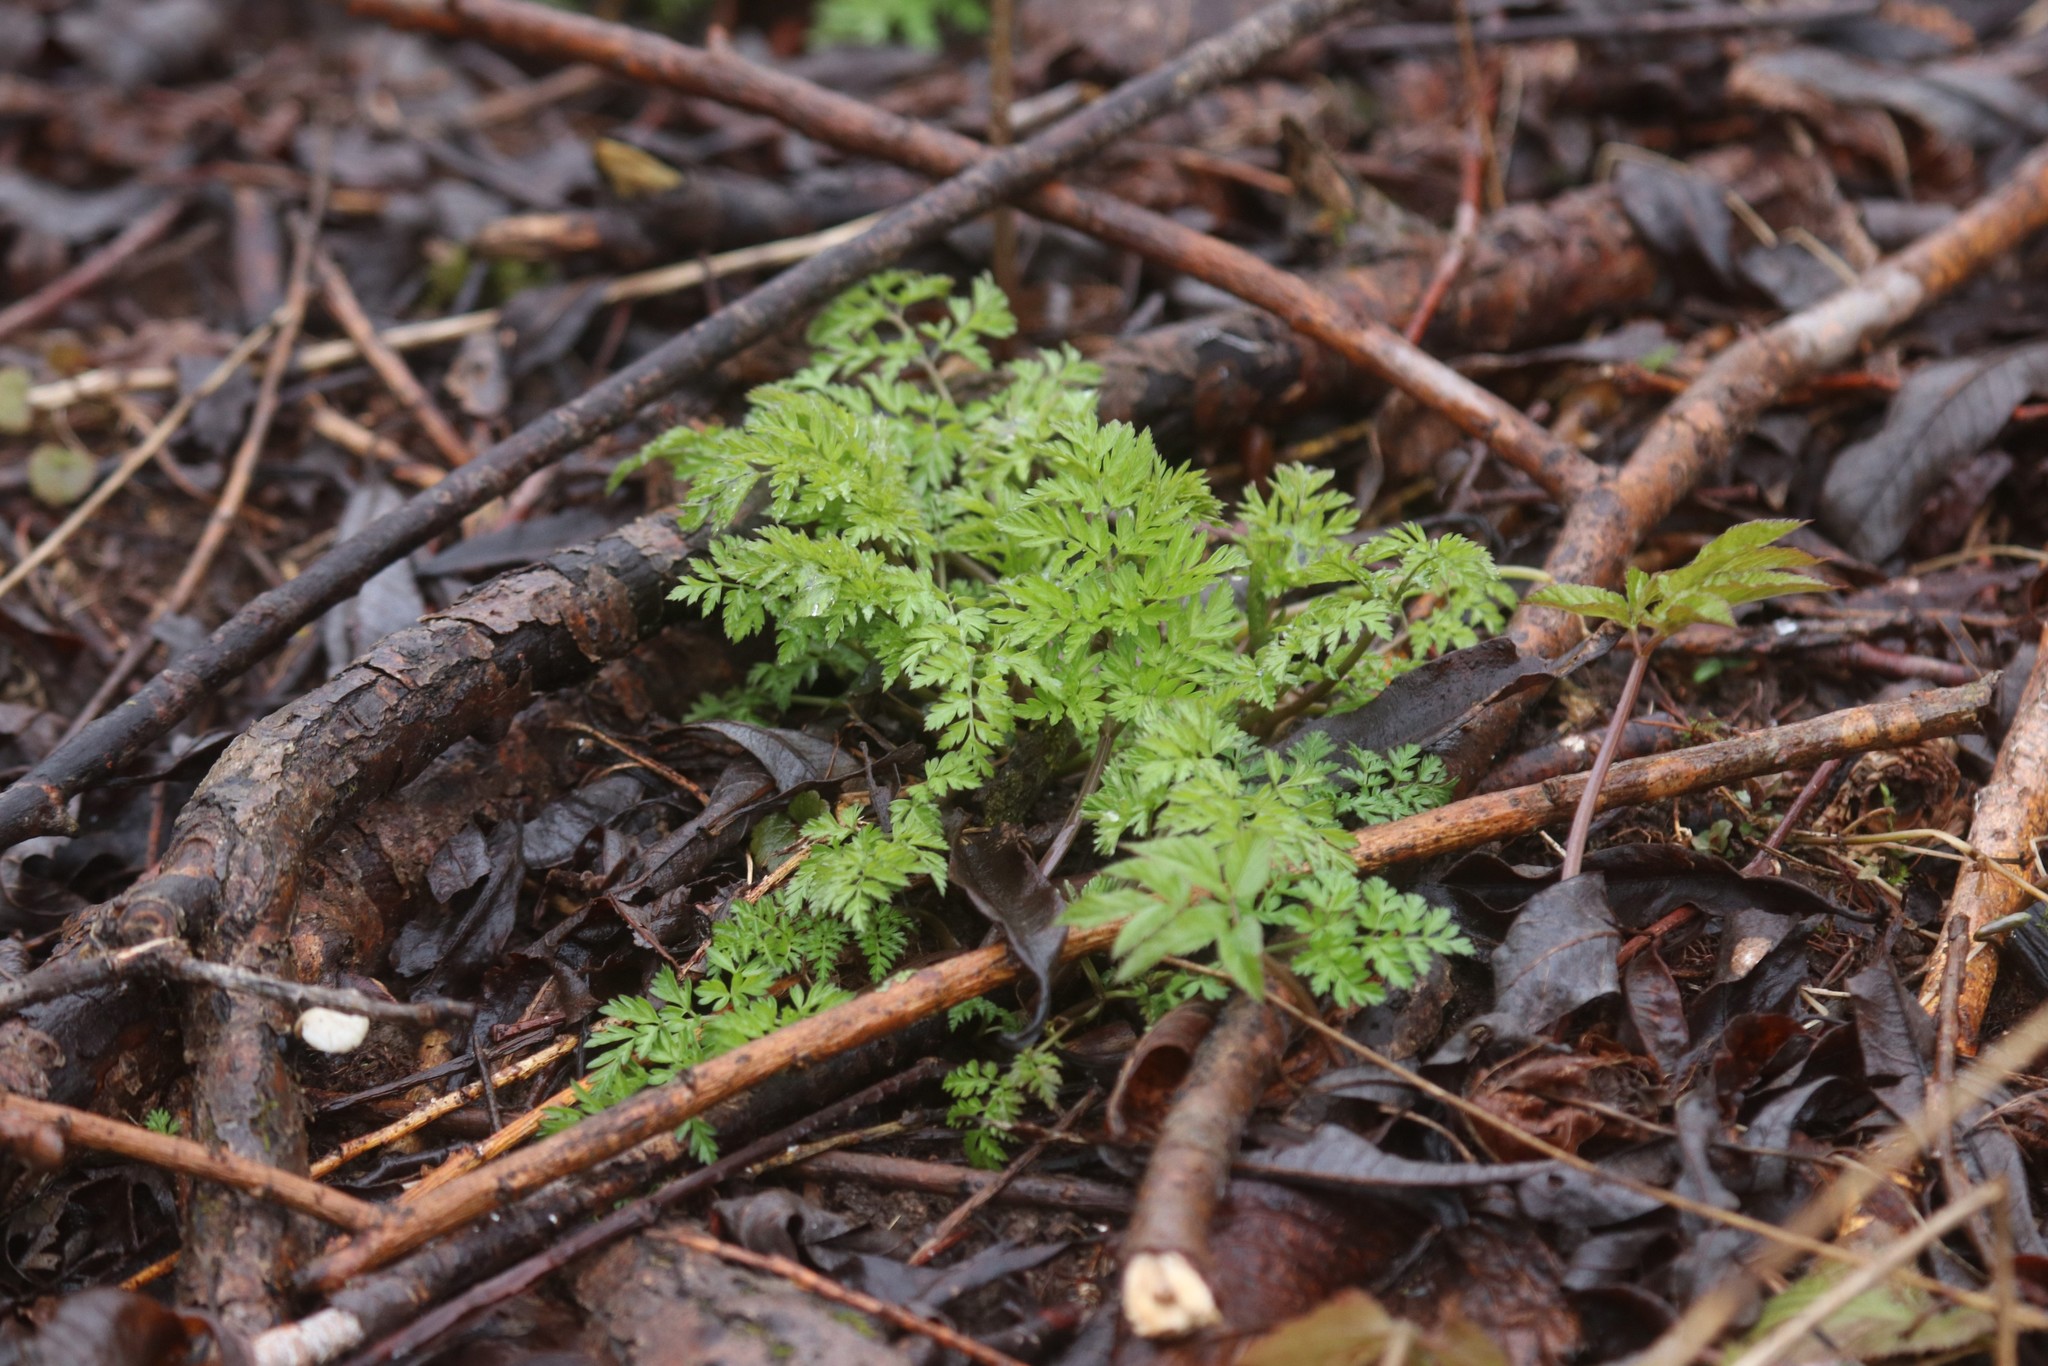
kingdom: Plantae
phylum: Tracheophyta
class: Magnoliopsida
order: Apiales
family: Apiaceae
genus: Anthriscus
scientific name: Anthriscus sylvestris
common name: Cow parsley
